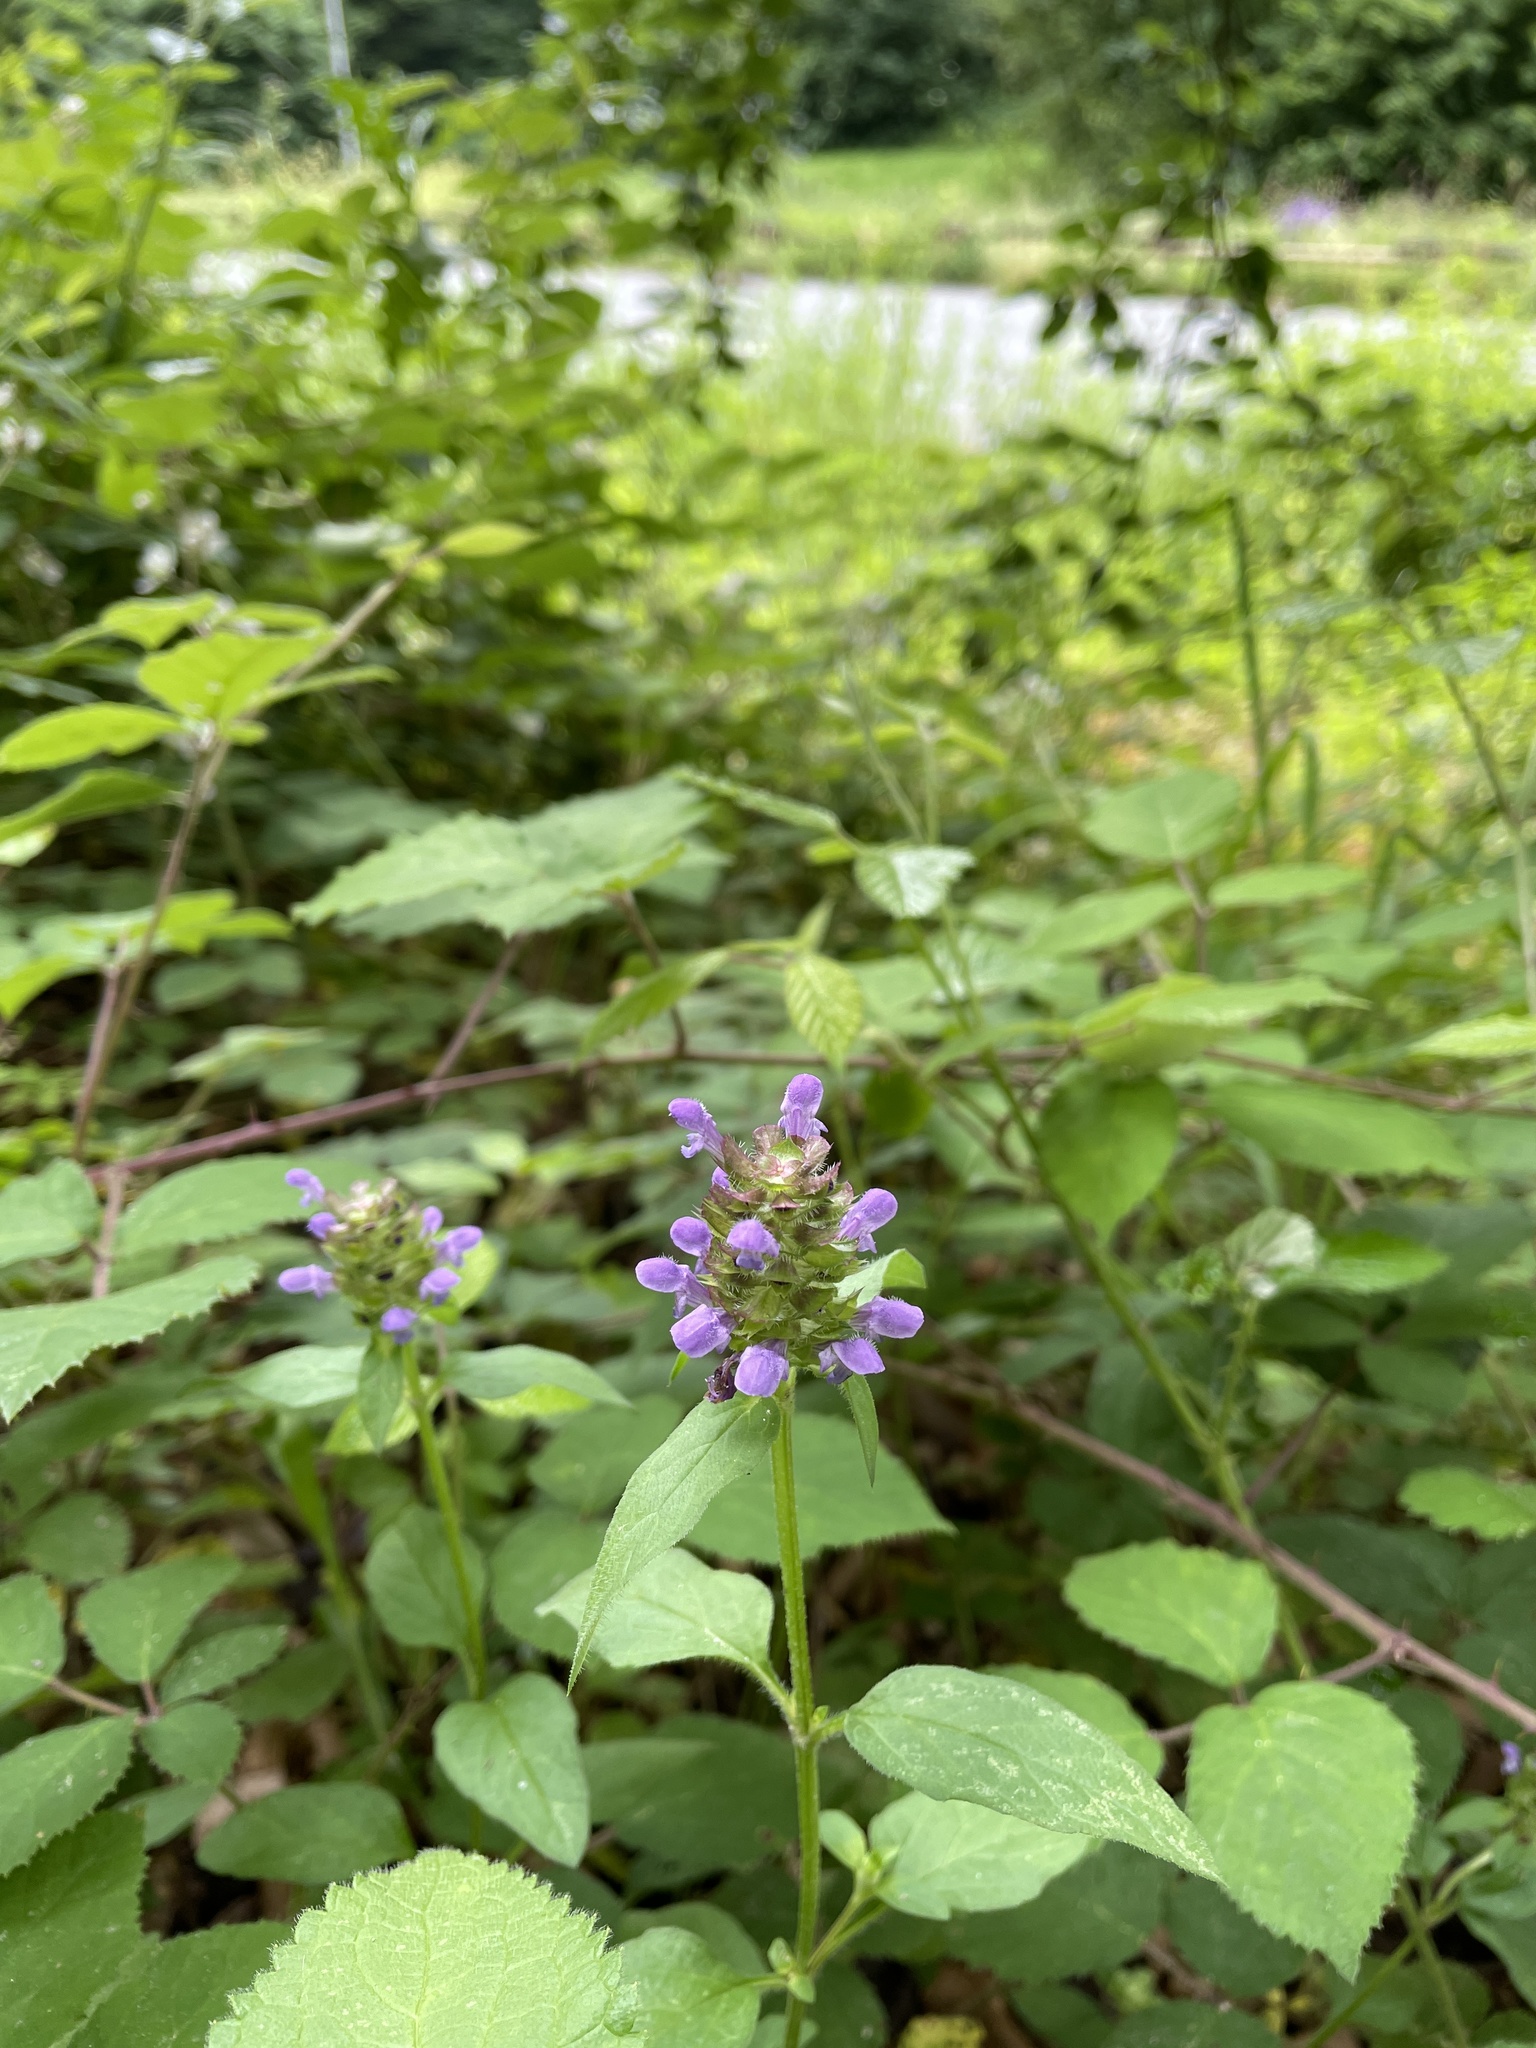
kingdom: Plantae
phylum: Tracheophyta
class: Magnoliopsida
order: Lamiales
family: Lamiaceae
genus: Prunella
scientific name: Prunella vulgaris
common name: Heal-all
